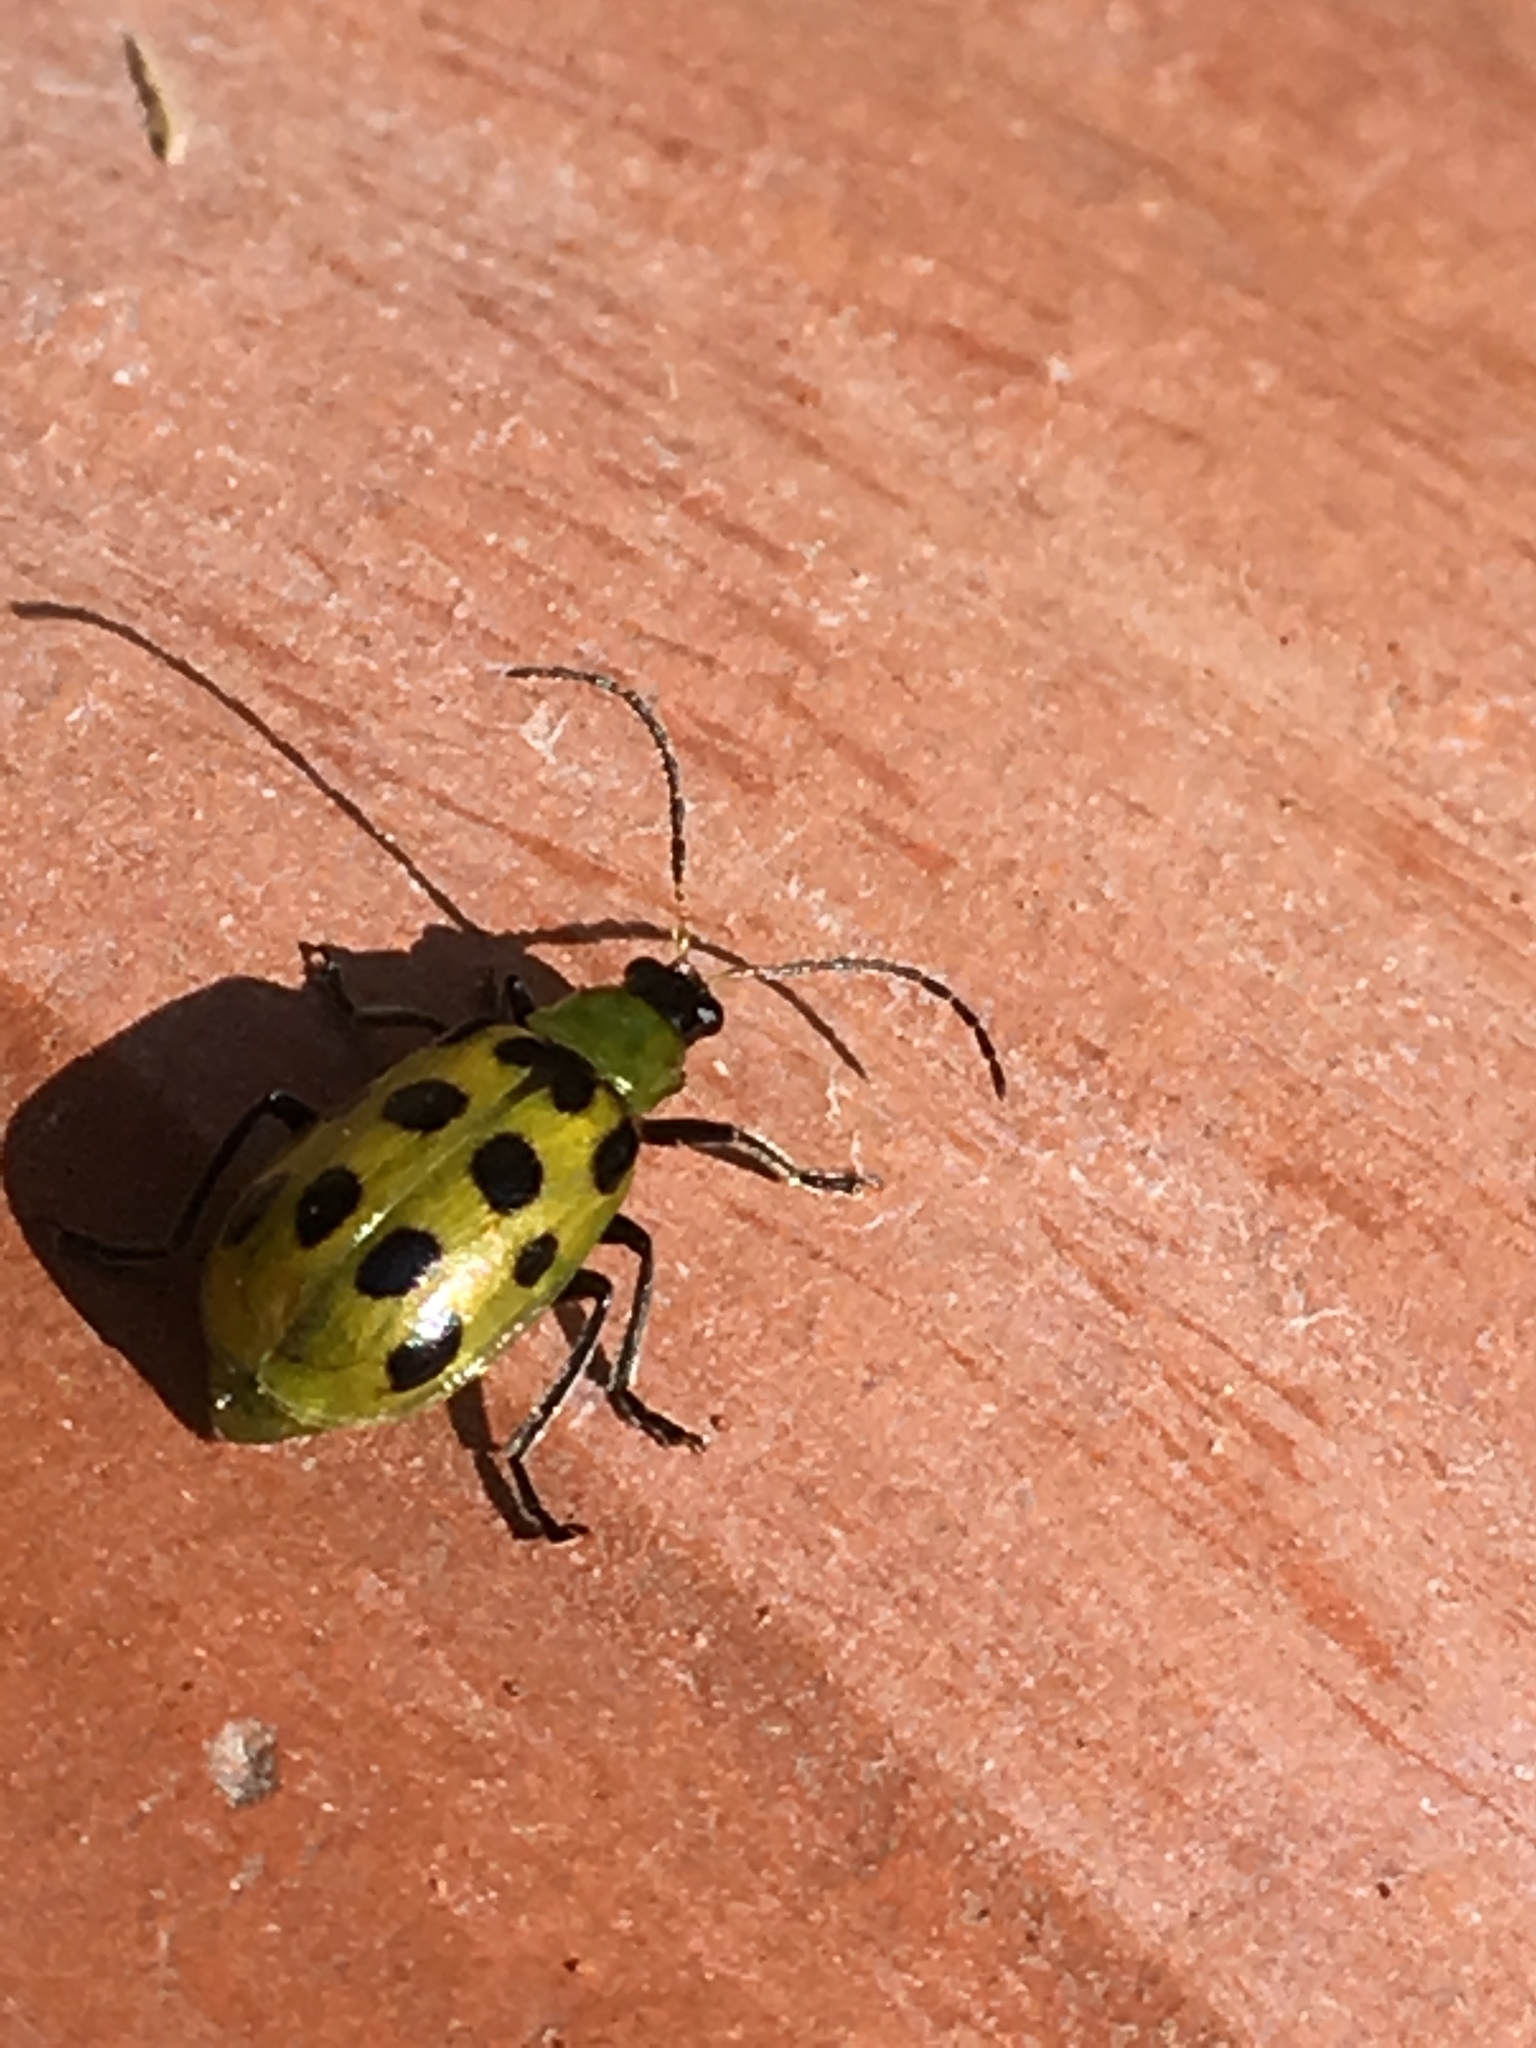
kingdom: Animalia
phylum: Arthropoda
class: Insecta
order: Coleoptera
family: Chrysomelidae
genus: Diabrotica
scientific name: Diabrotica undecimpunctata
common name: Spotted cucumber beetle
